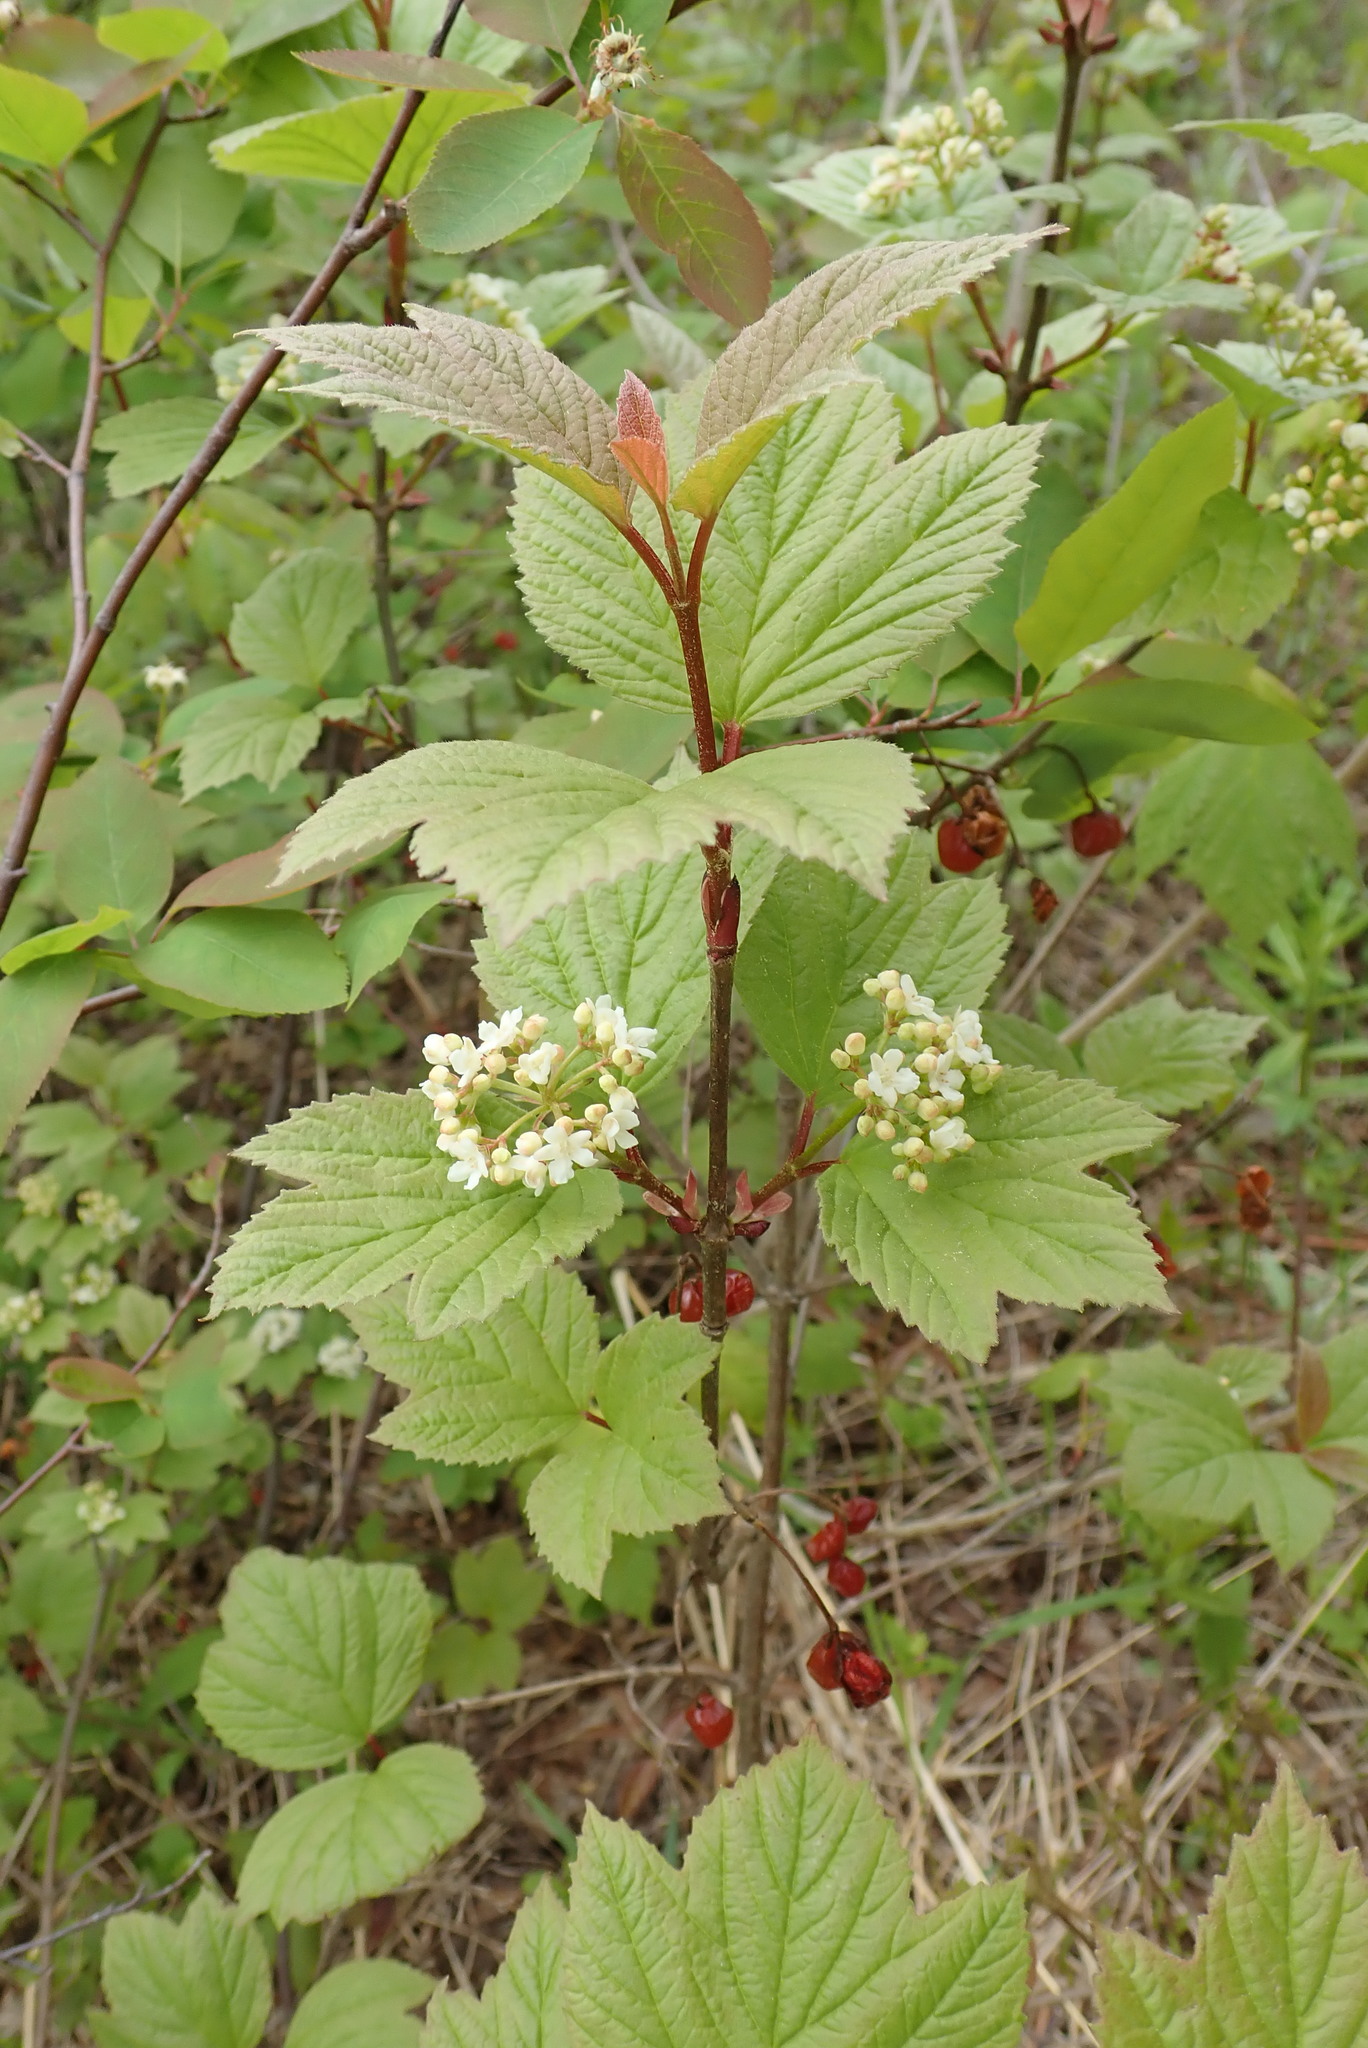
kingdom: Plantae
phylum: Tracheophyta
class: Magnoliopsida
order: Dipsacales
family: Viburnaceae
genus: Viburnum
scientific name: Viburnum edule
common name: Mooseberry
